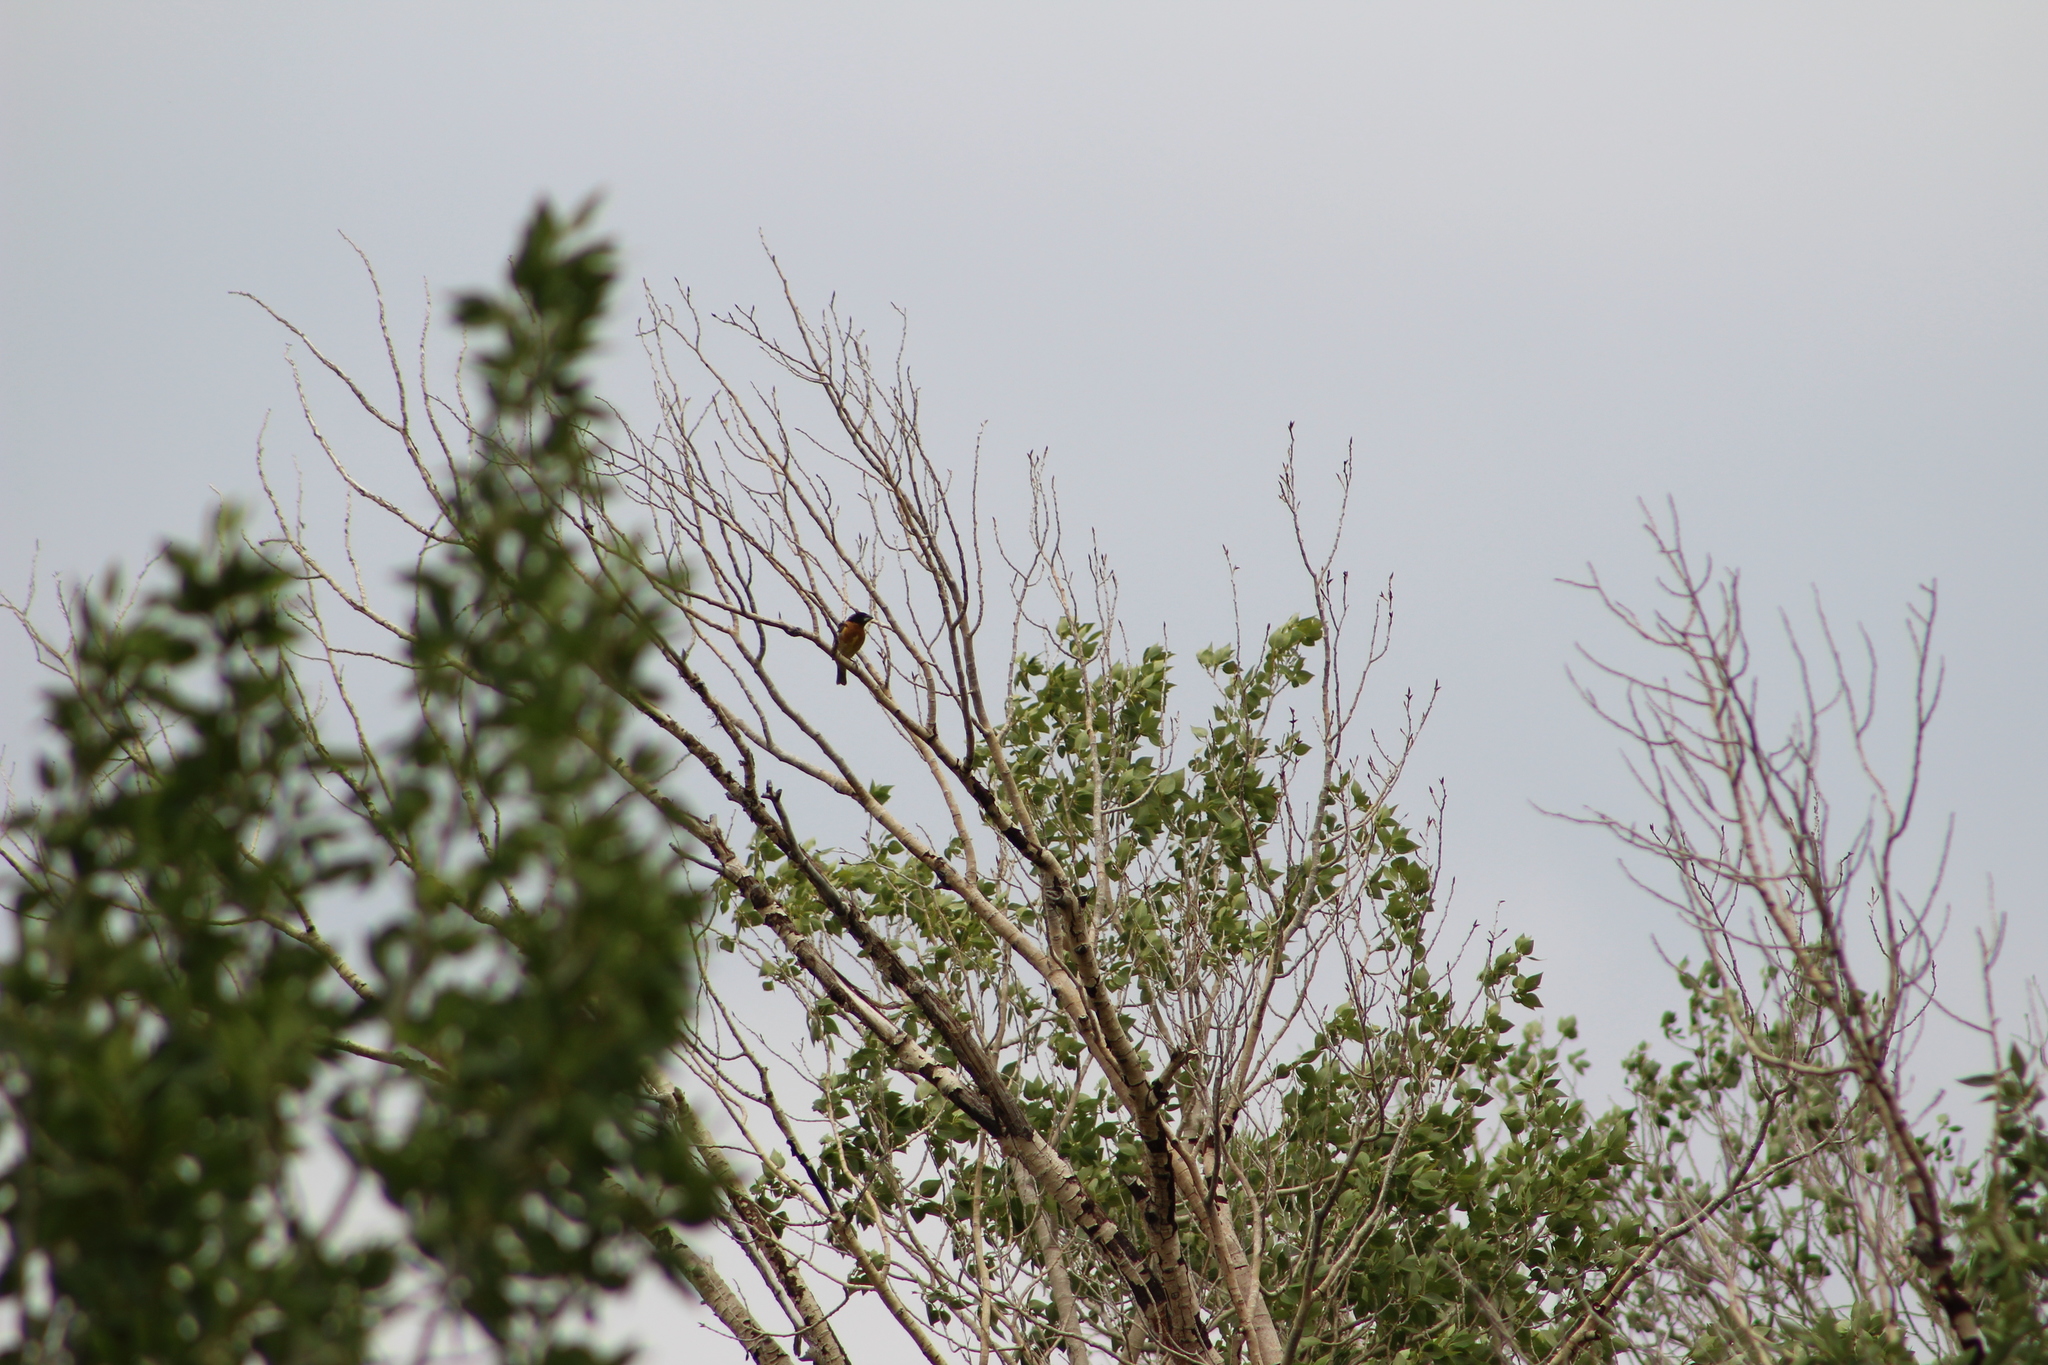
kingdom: Animalia
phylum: Chordata
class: Aves
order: Passeriformes
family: Cardinalidae
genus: Pheucticus
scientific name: Pheucticus melanocephalus
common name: Black-headed grosbeak
